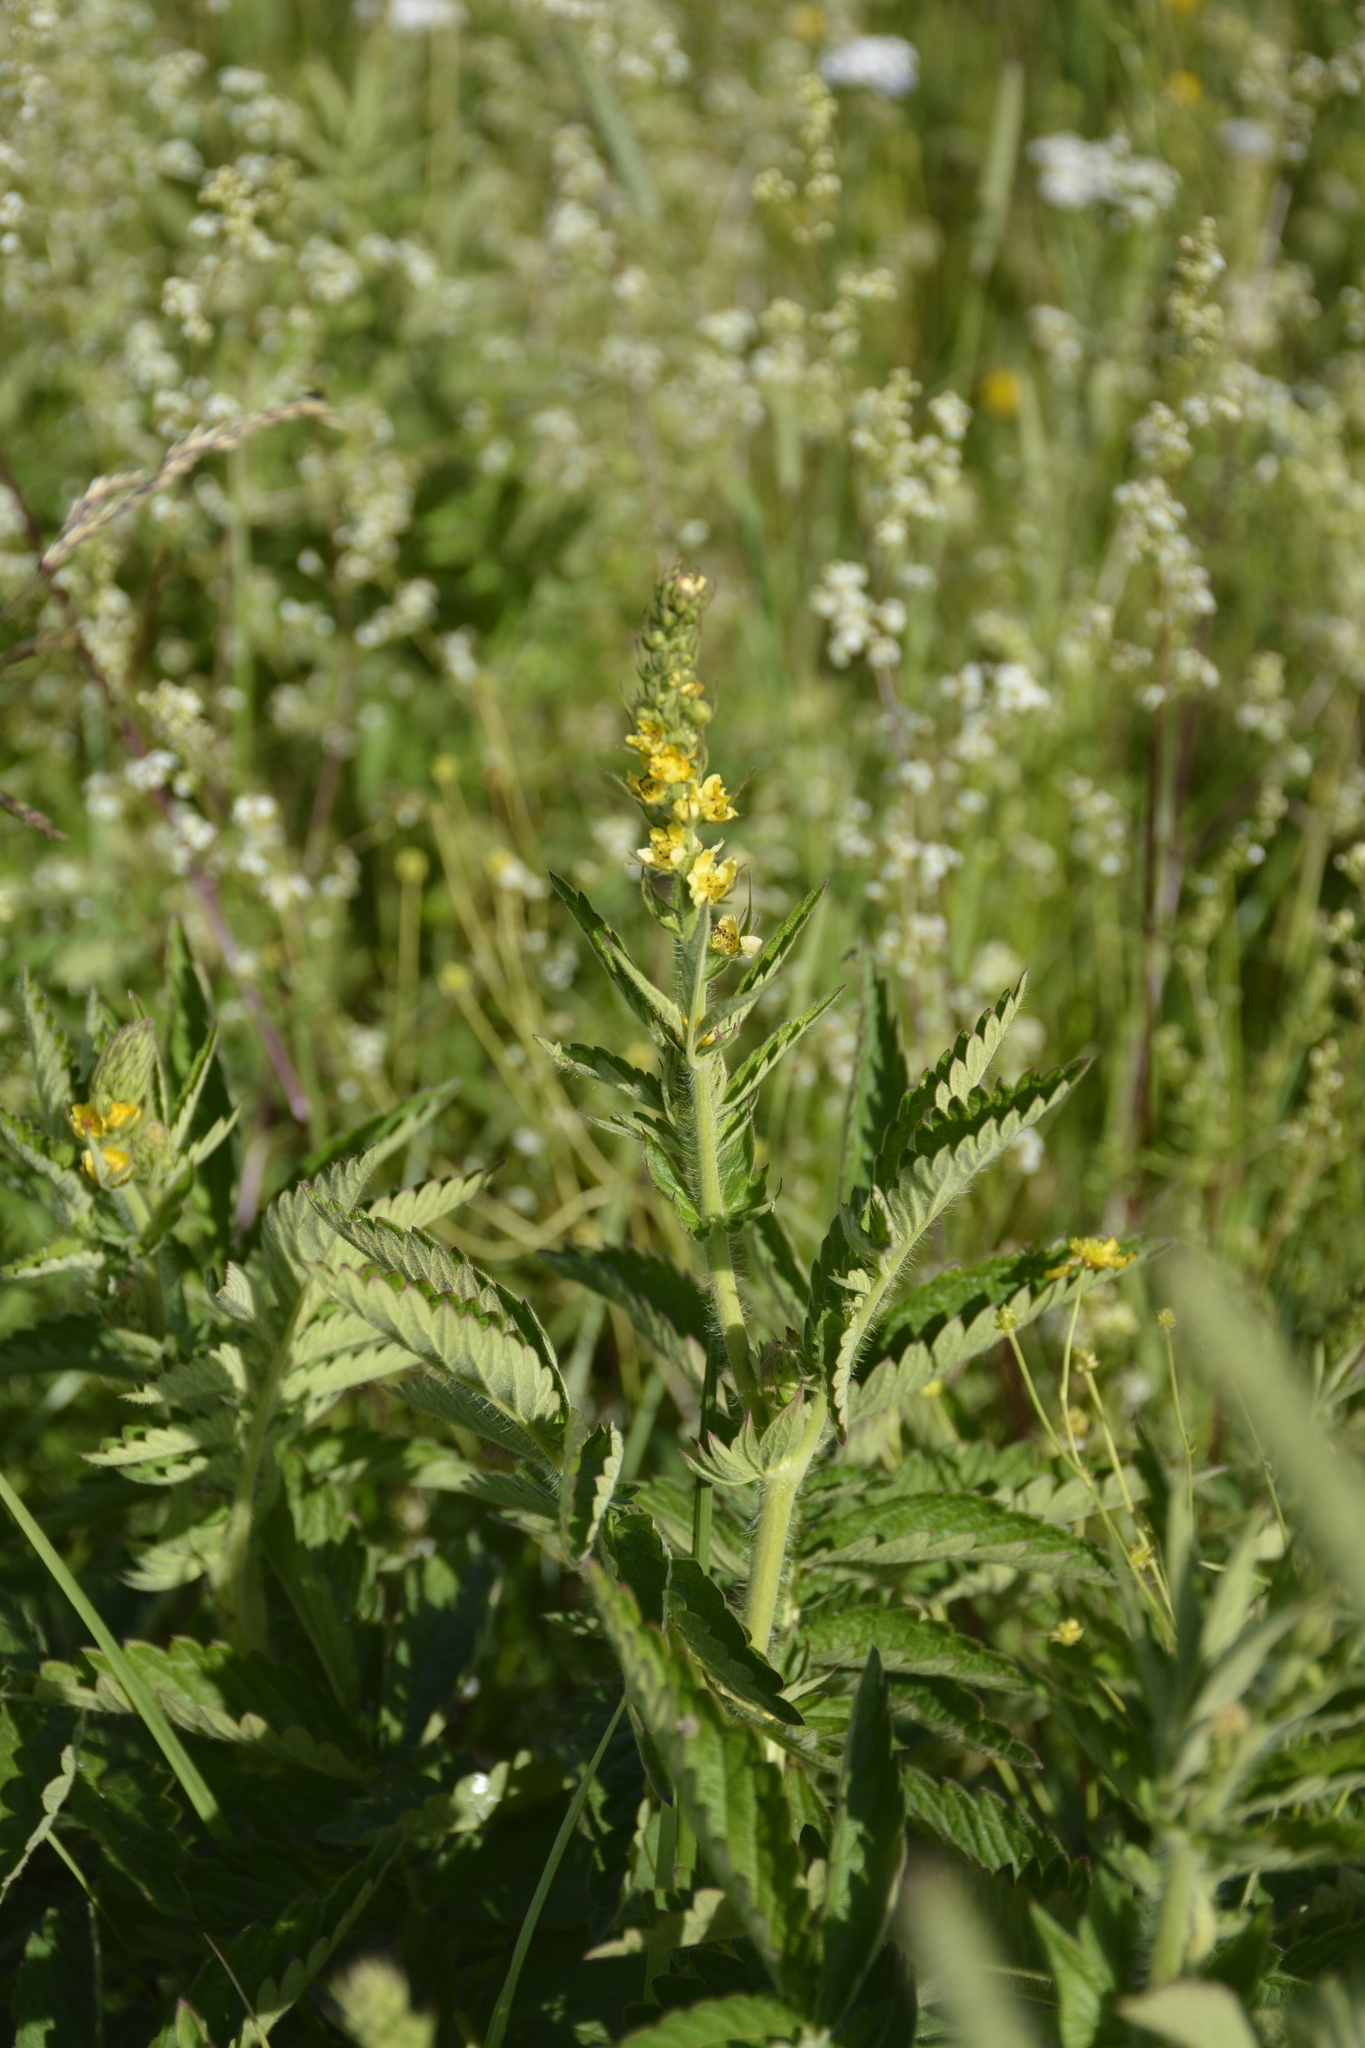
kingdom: Plantae
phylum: Tracheophyta
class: Magnoliopsida
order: Rosales
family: Rosaceae
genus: Agrimonia
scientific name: Agrimonia eupatoria
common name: Agrimony
